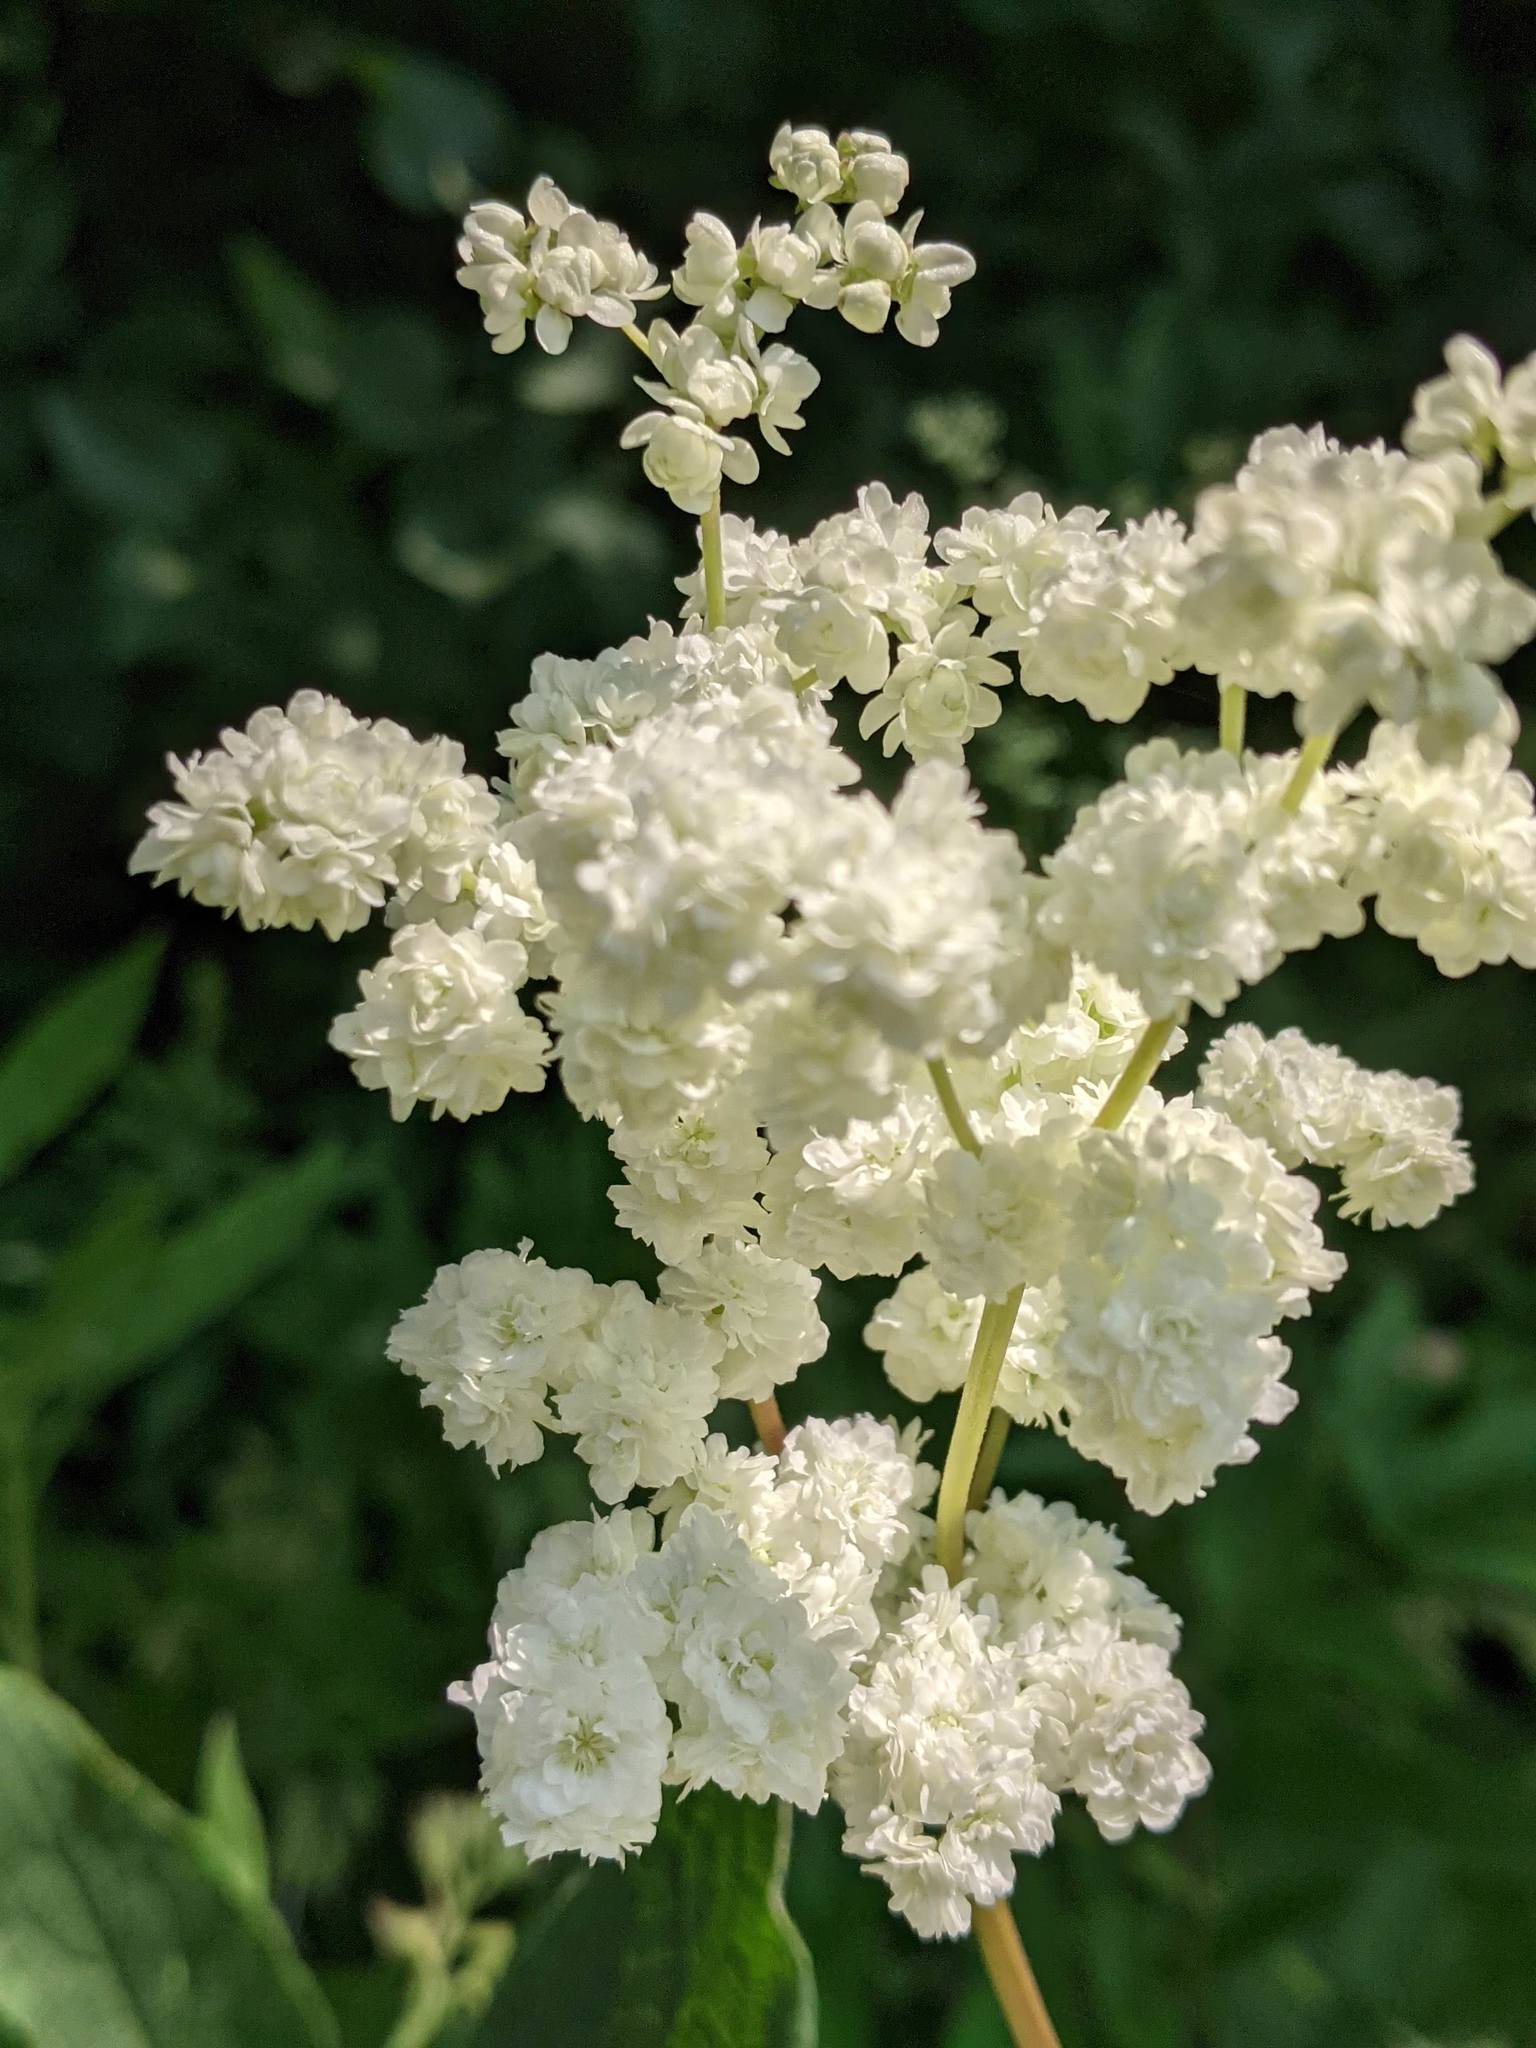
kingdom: Plantae
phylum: Tracheophyta
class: Magnoliopsida
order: Rosales
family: Rosaceae
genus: Filipendula
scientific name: Filipendula ulmaria
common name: Meadowsweet
